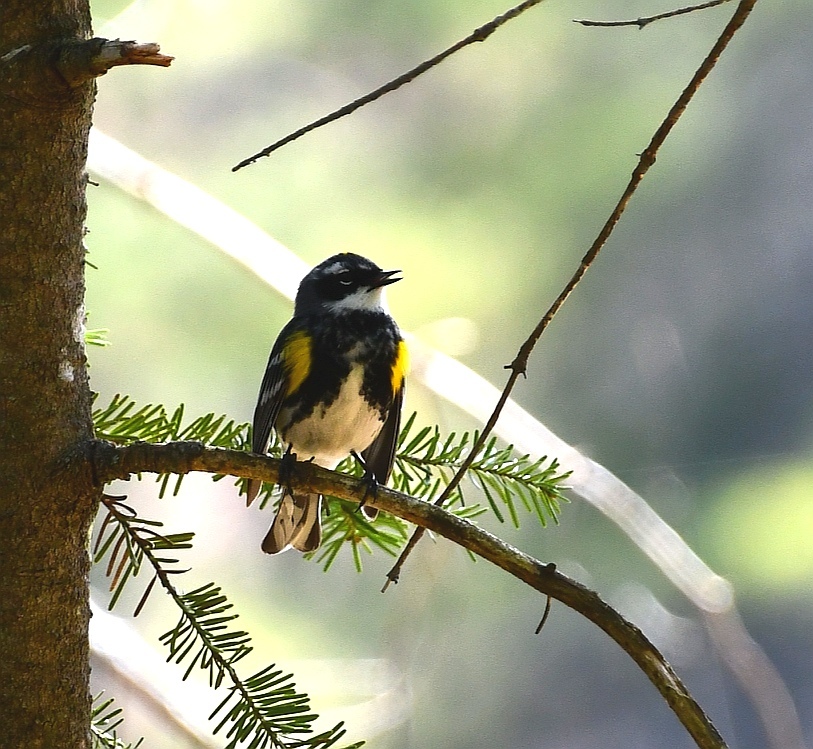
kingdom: Animalia
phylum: Chordata
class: Aves
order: Passeriformes
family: Parulidae
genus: Setophaga
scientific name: Setophaga coronata
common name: Myrtle warbler
